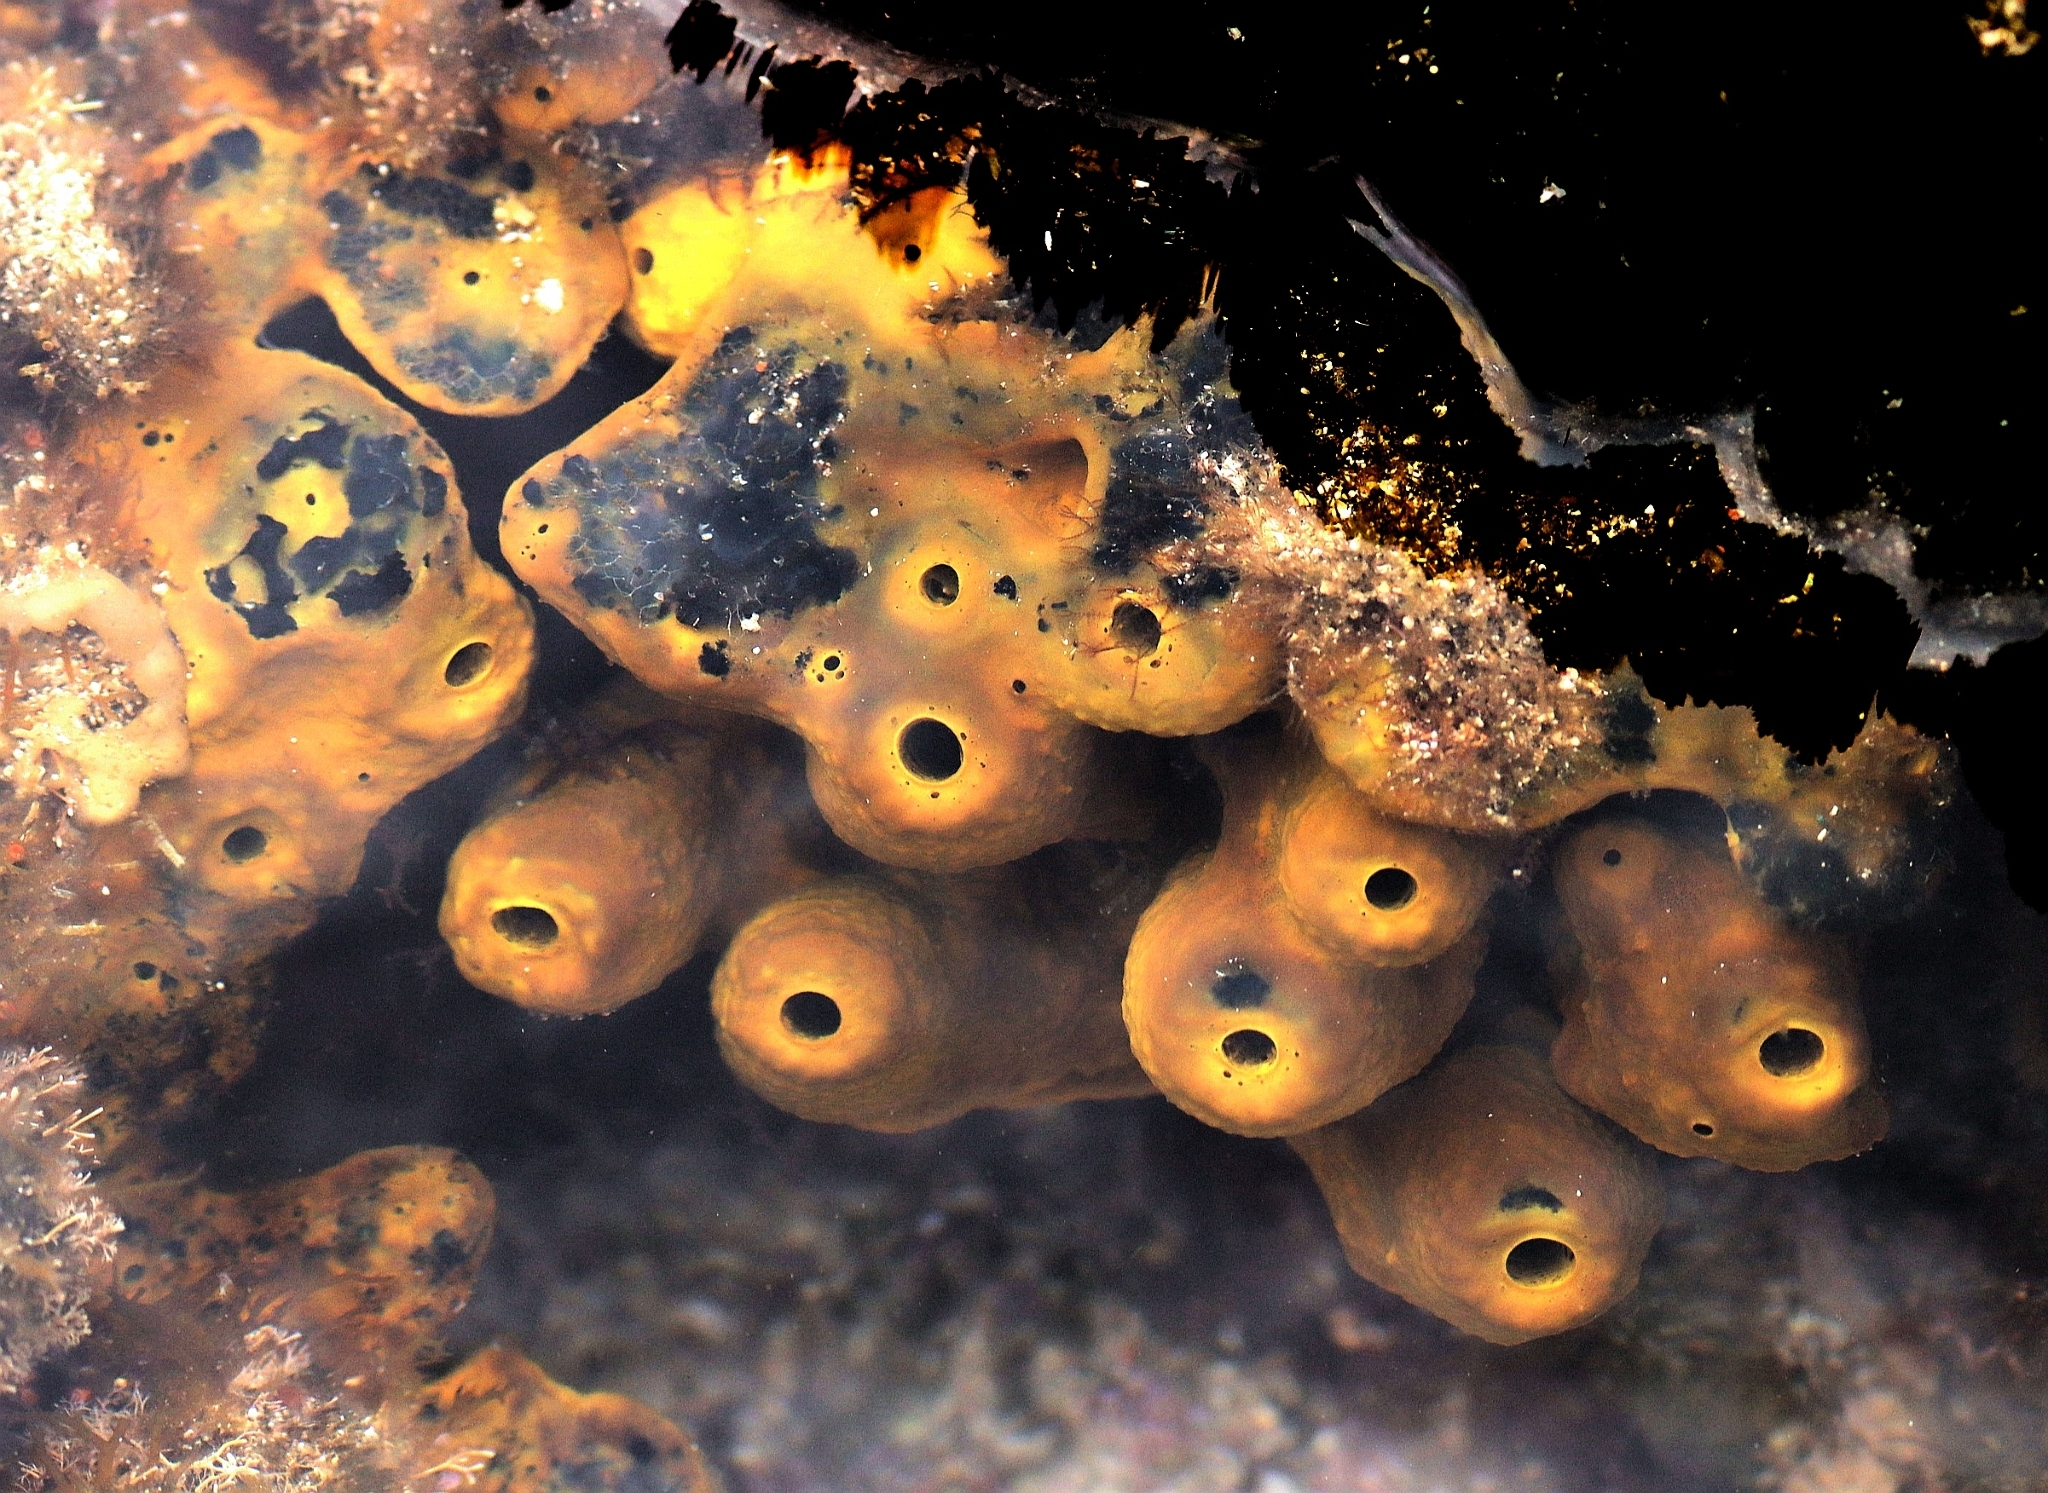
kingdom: Animalia
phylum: Porifera
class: Demospongiae
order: Verongiida
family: Aplysinidae
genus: Aplysina
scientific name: Aplysina aerophoba
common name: Aureate sponge
